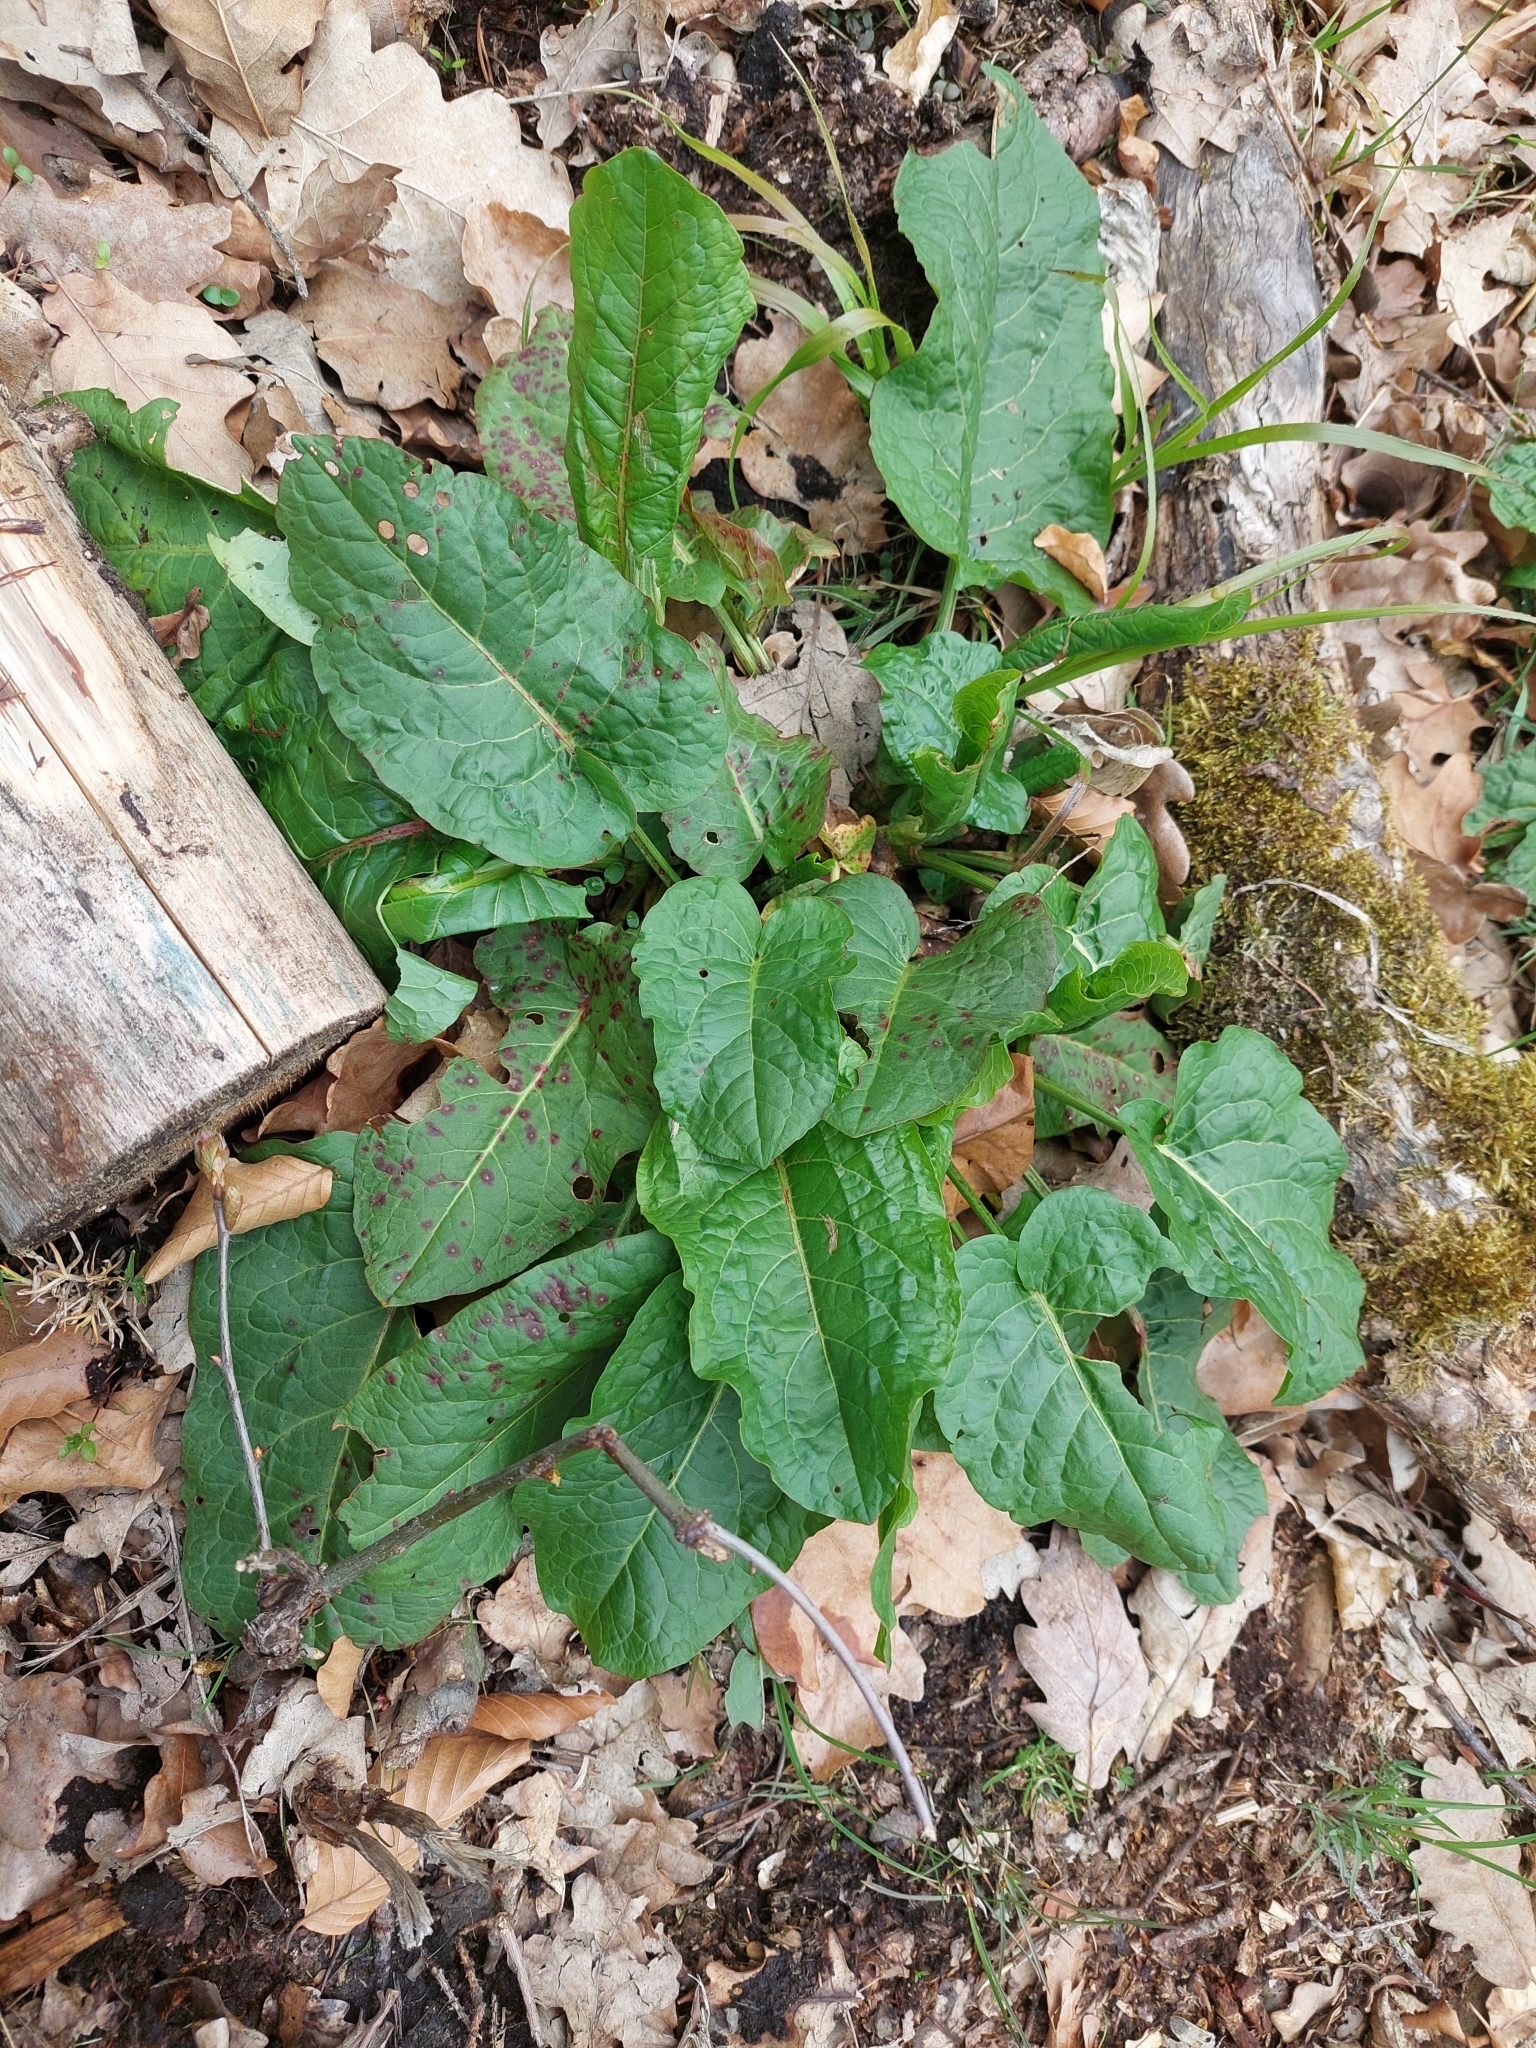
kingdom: Plantae
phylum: Tracheophyta
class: Magnoliopsida
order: Caryophyllales
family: Polygonaceae
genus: Rumex
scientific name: Rumex obtusifolius
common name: Bitter dock
